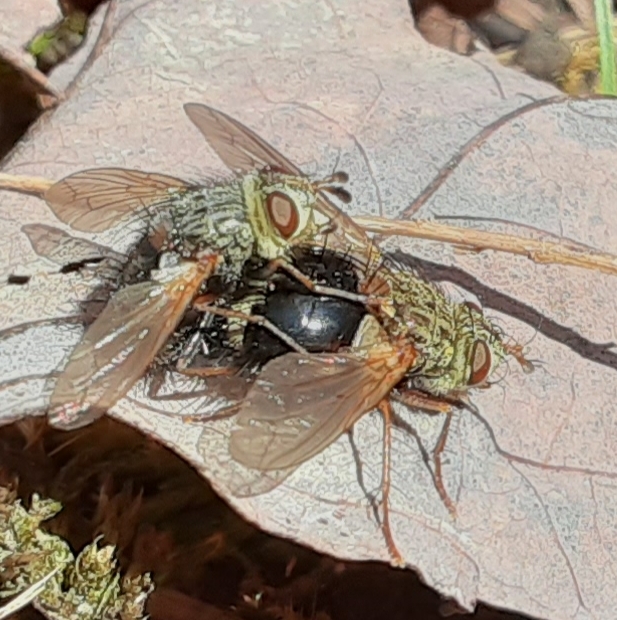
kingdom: Animalia
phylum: Arthropoda
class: Insecta
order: Diptera
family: Tachinidae
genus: Epalpus
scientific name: Epalpus signifer
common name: Early tachinid fly
